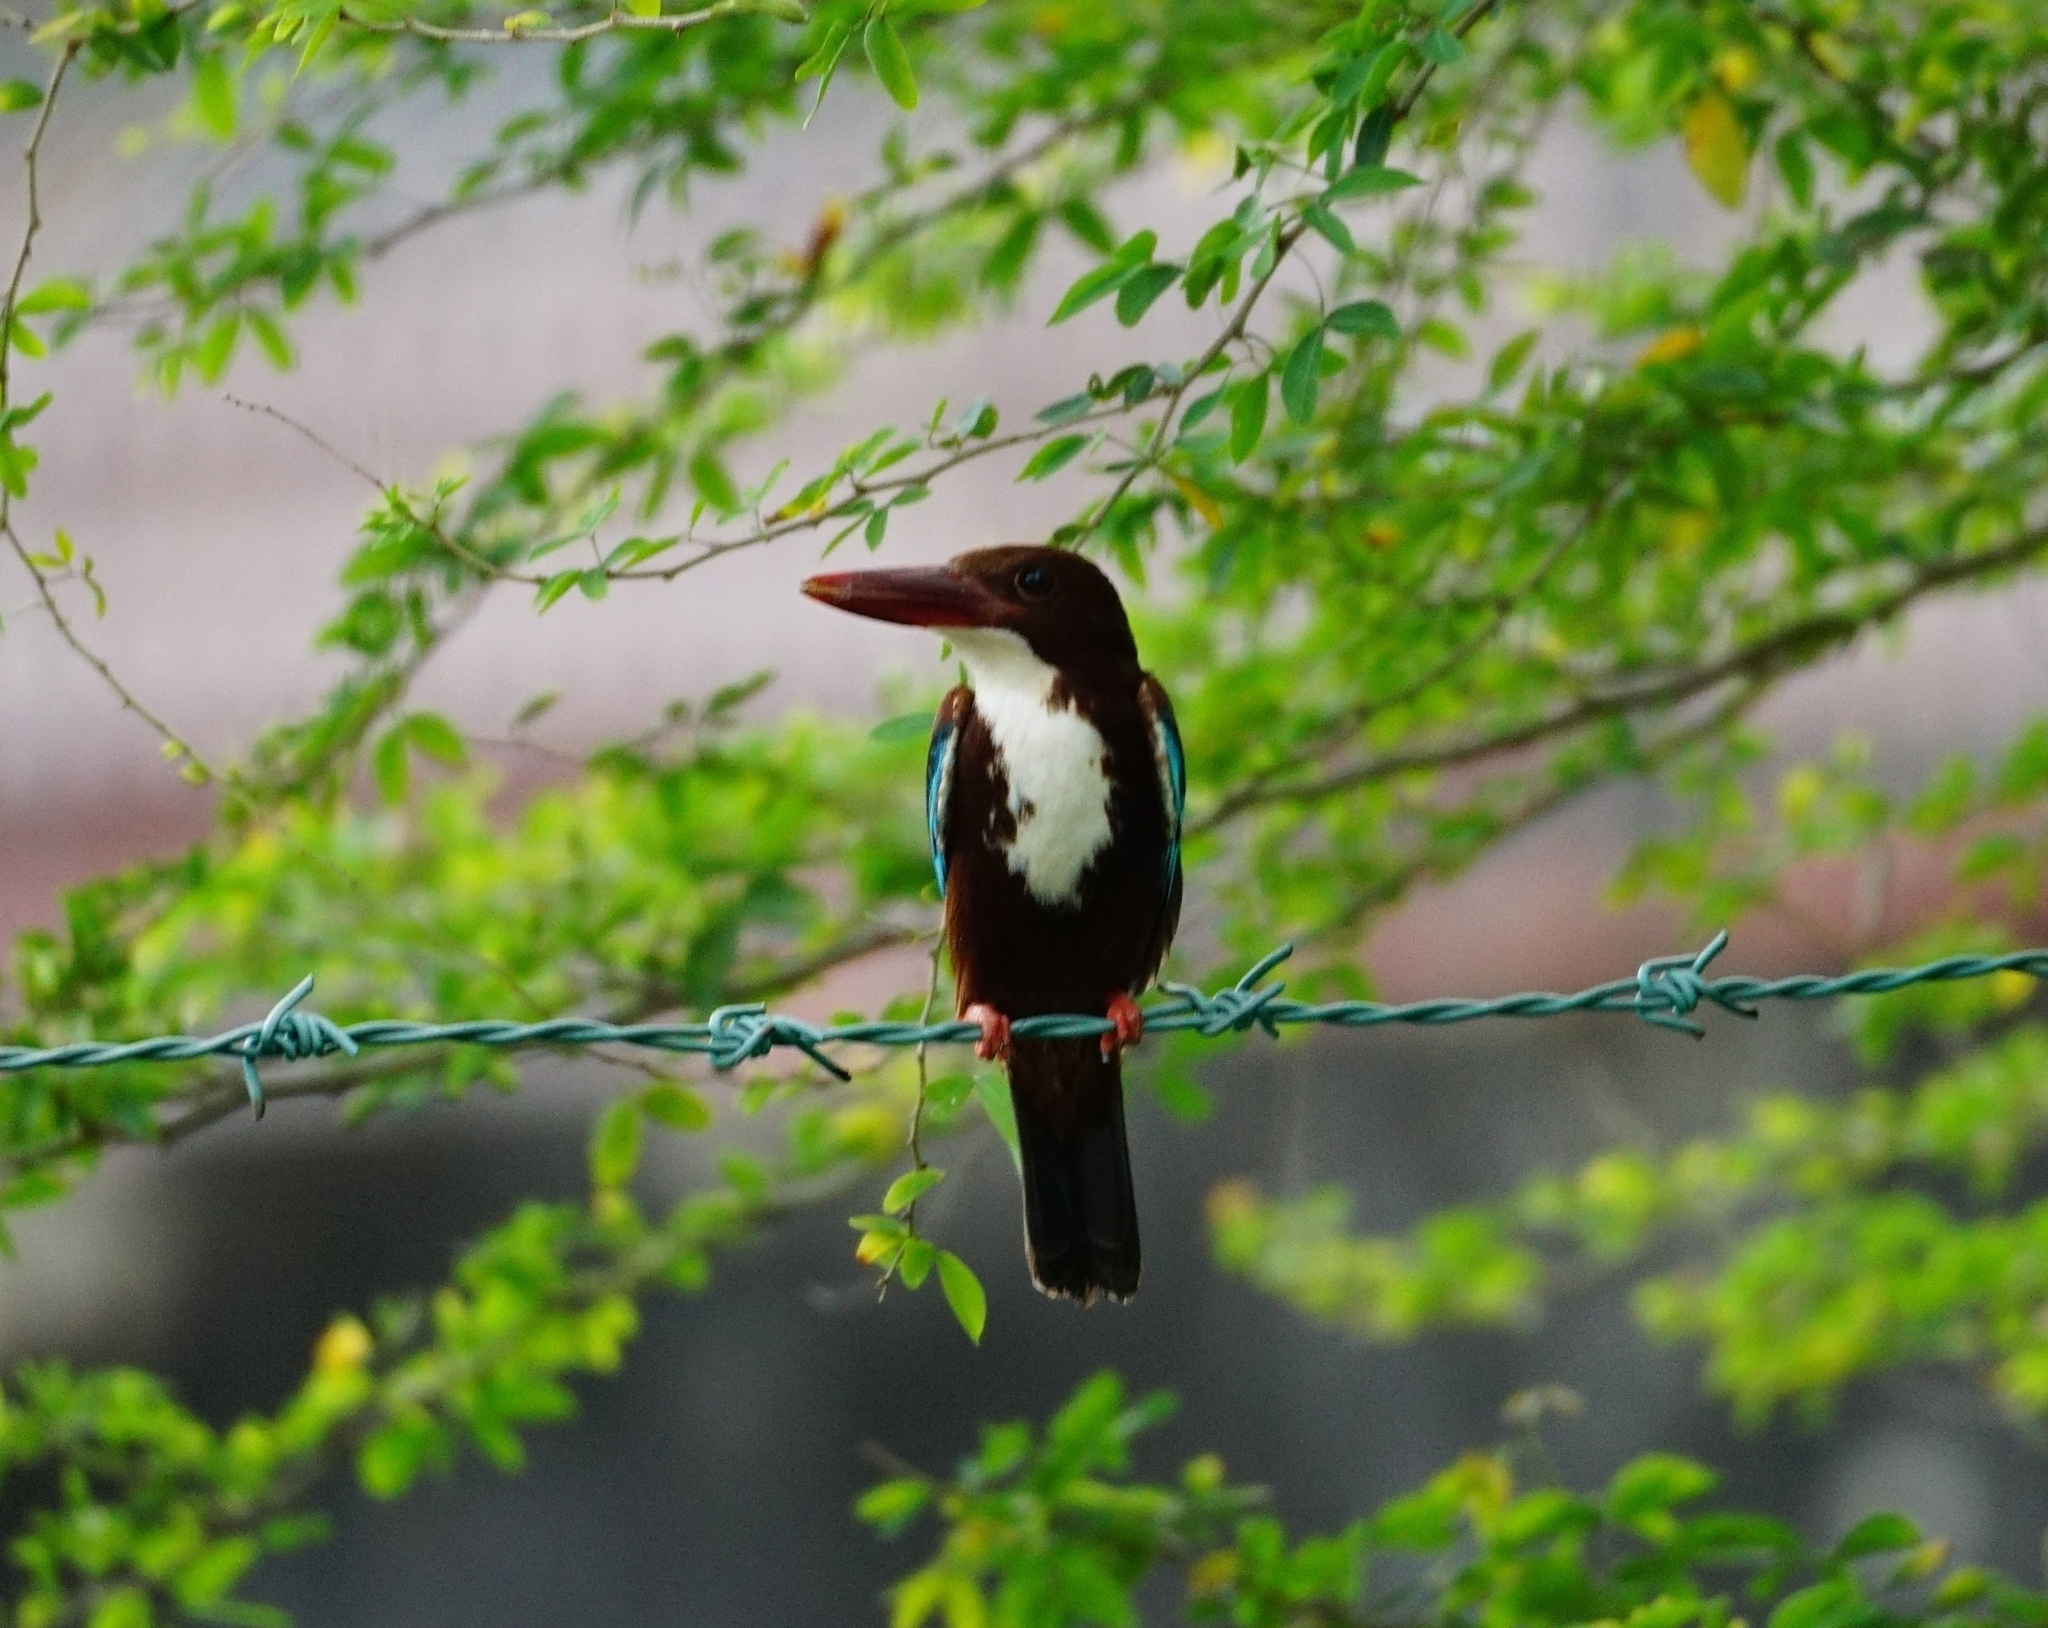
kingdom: Animalia
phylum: Chordata
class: Aves
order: Coraciiformes
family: Alcedinidae
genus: Halcyon
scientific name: Halcyon smyrnensis
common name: White-throated kingfisher
